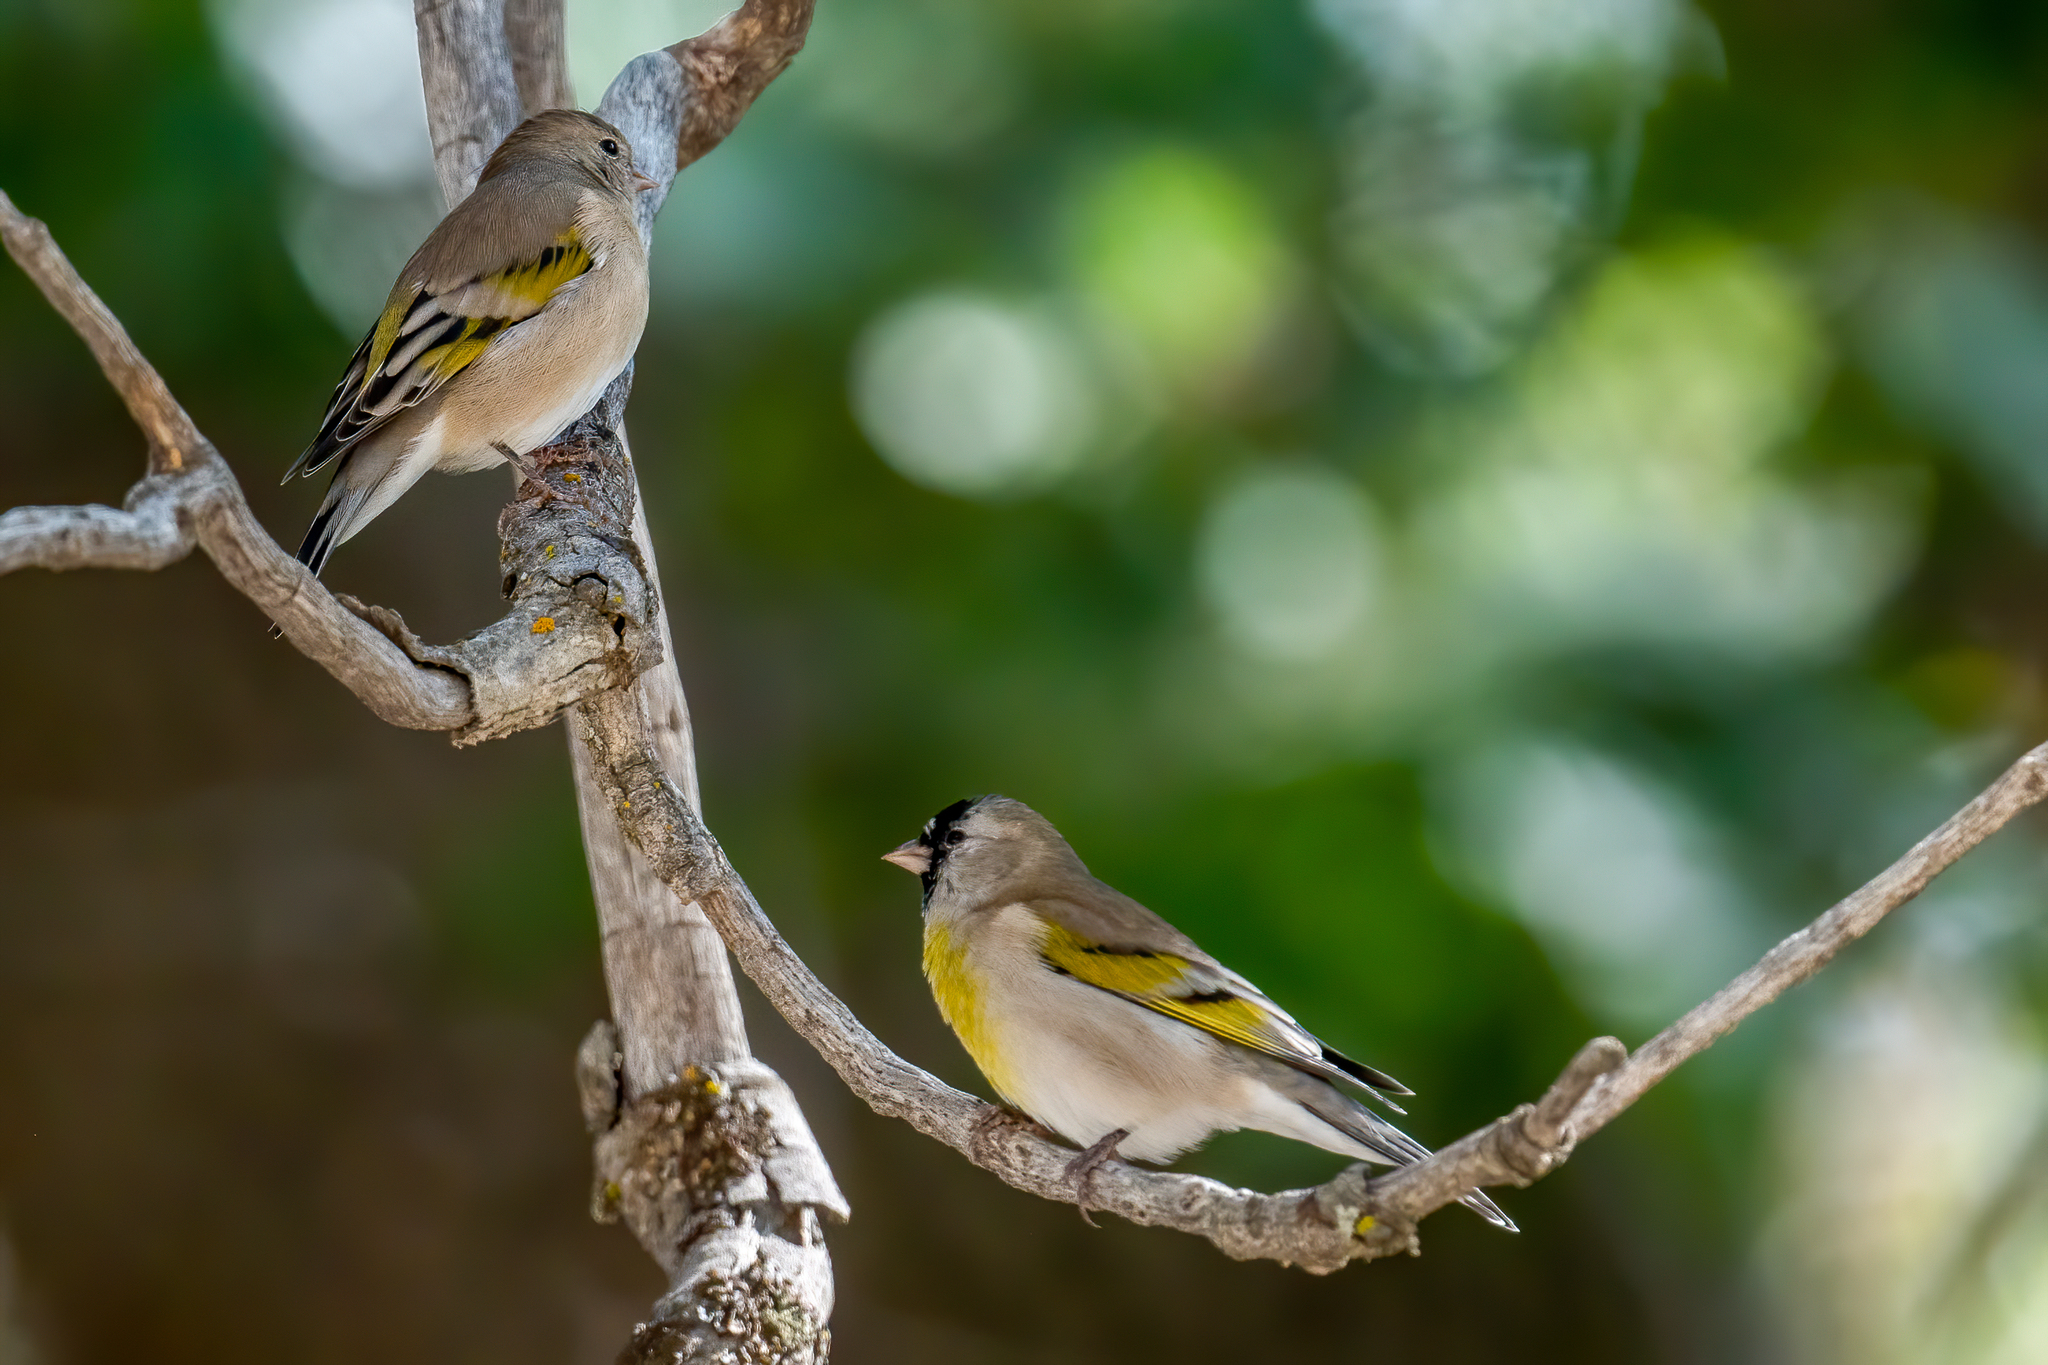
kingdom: Animalia
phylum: Chordata
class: Aves
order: Passeriformes
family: Fringillidae
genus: Spinus
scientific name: Spinus lawrencei
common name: Lawrence's goldfinch
